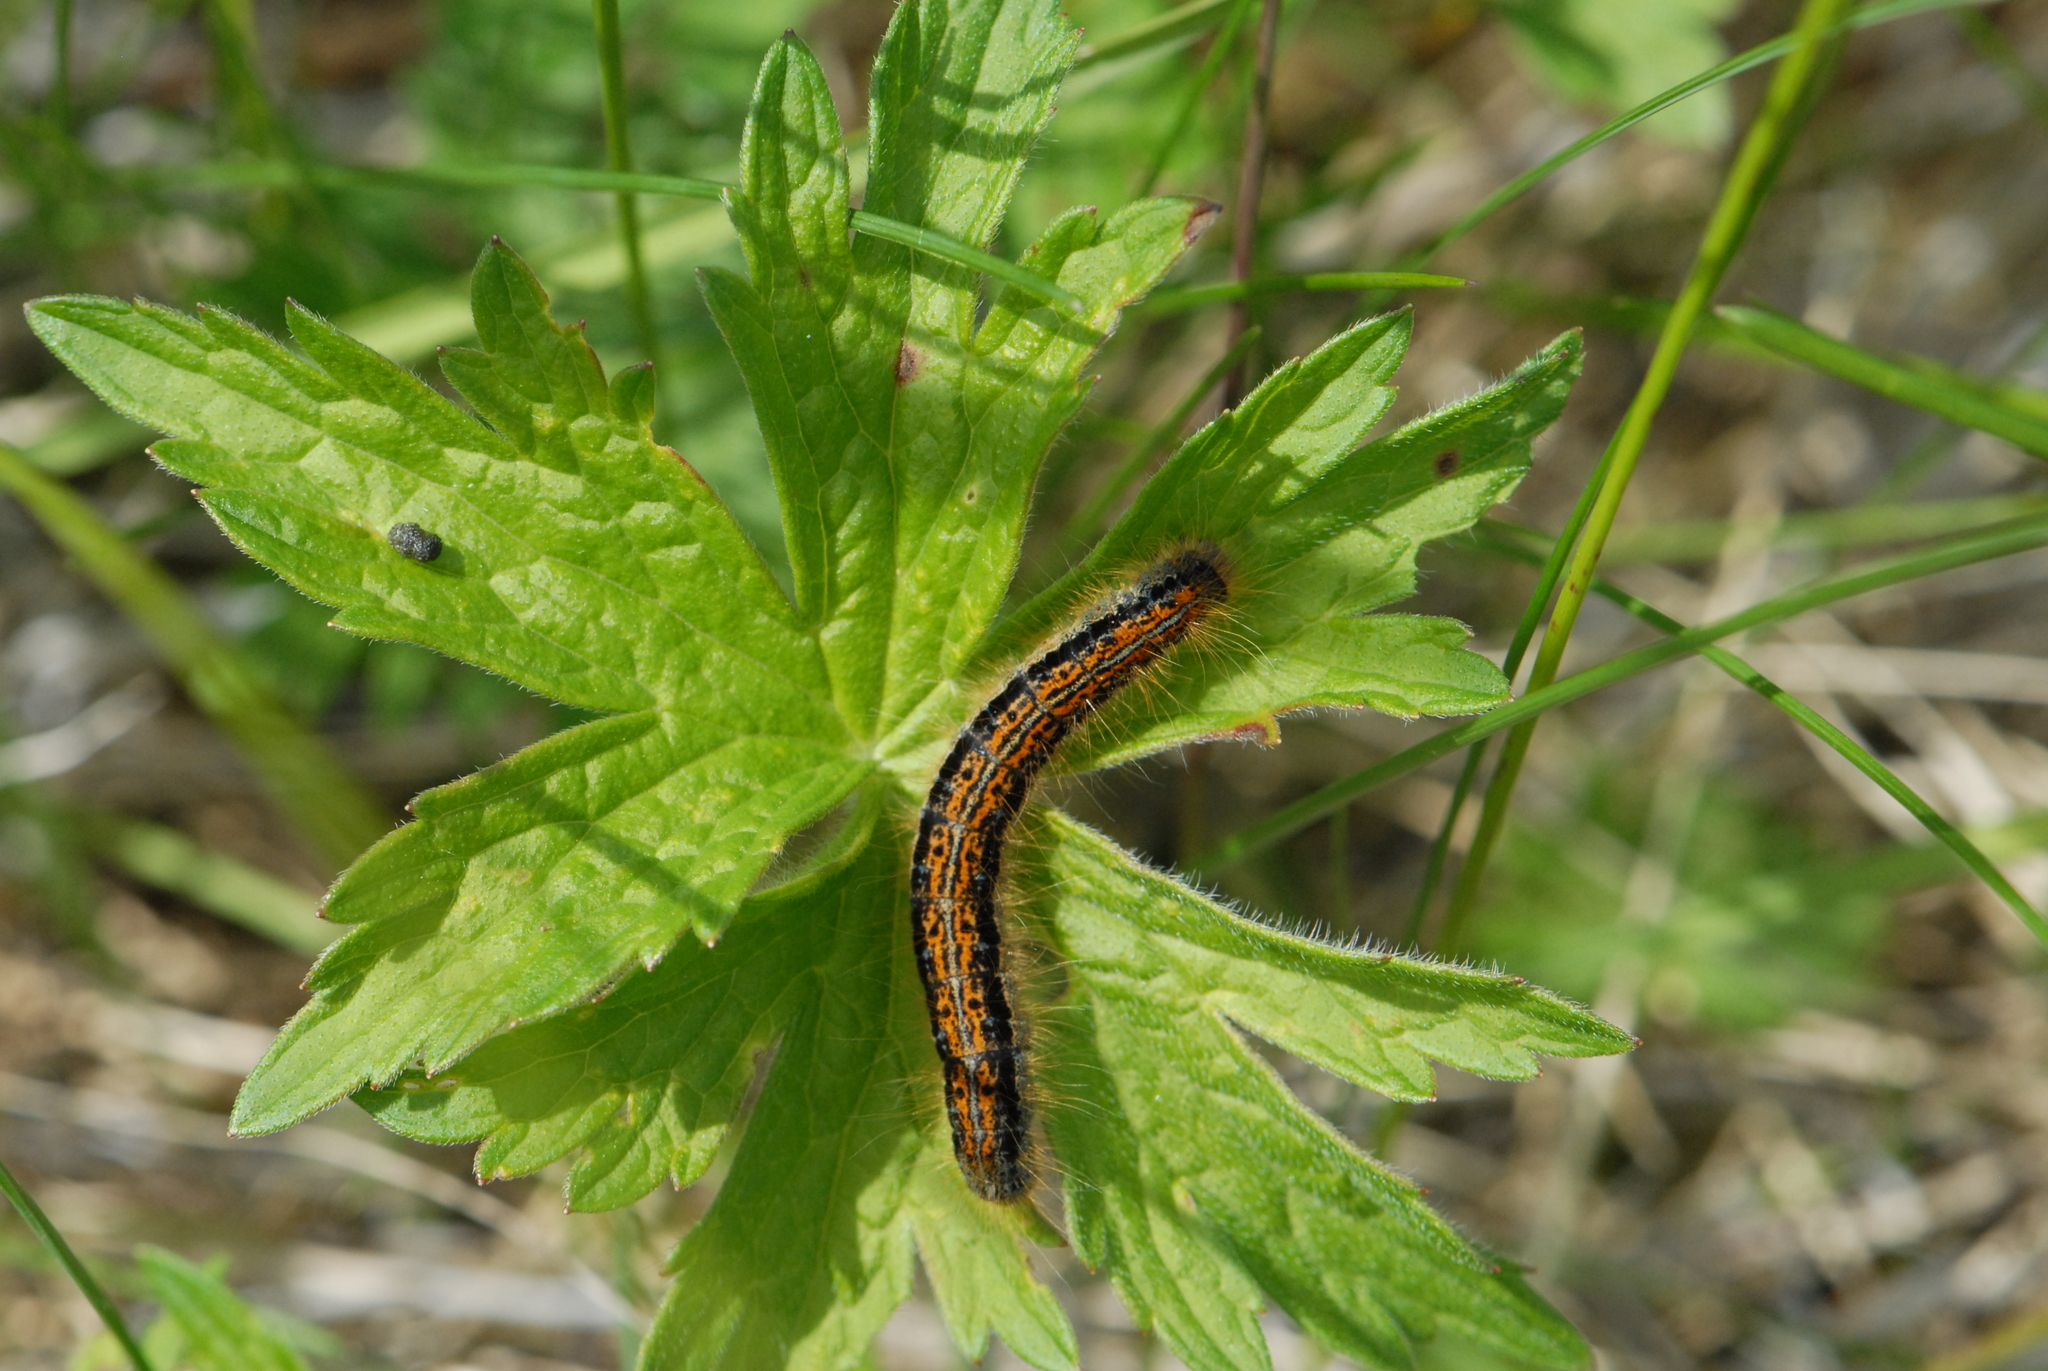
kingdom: Animalia
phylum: Arthropoda
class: Insecta
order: Lepidoptera
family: Lasiocampidae
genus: Malacosoma
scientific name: Malacosoma castrense
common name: Ground lackey
